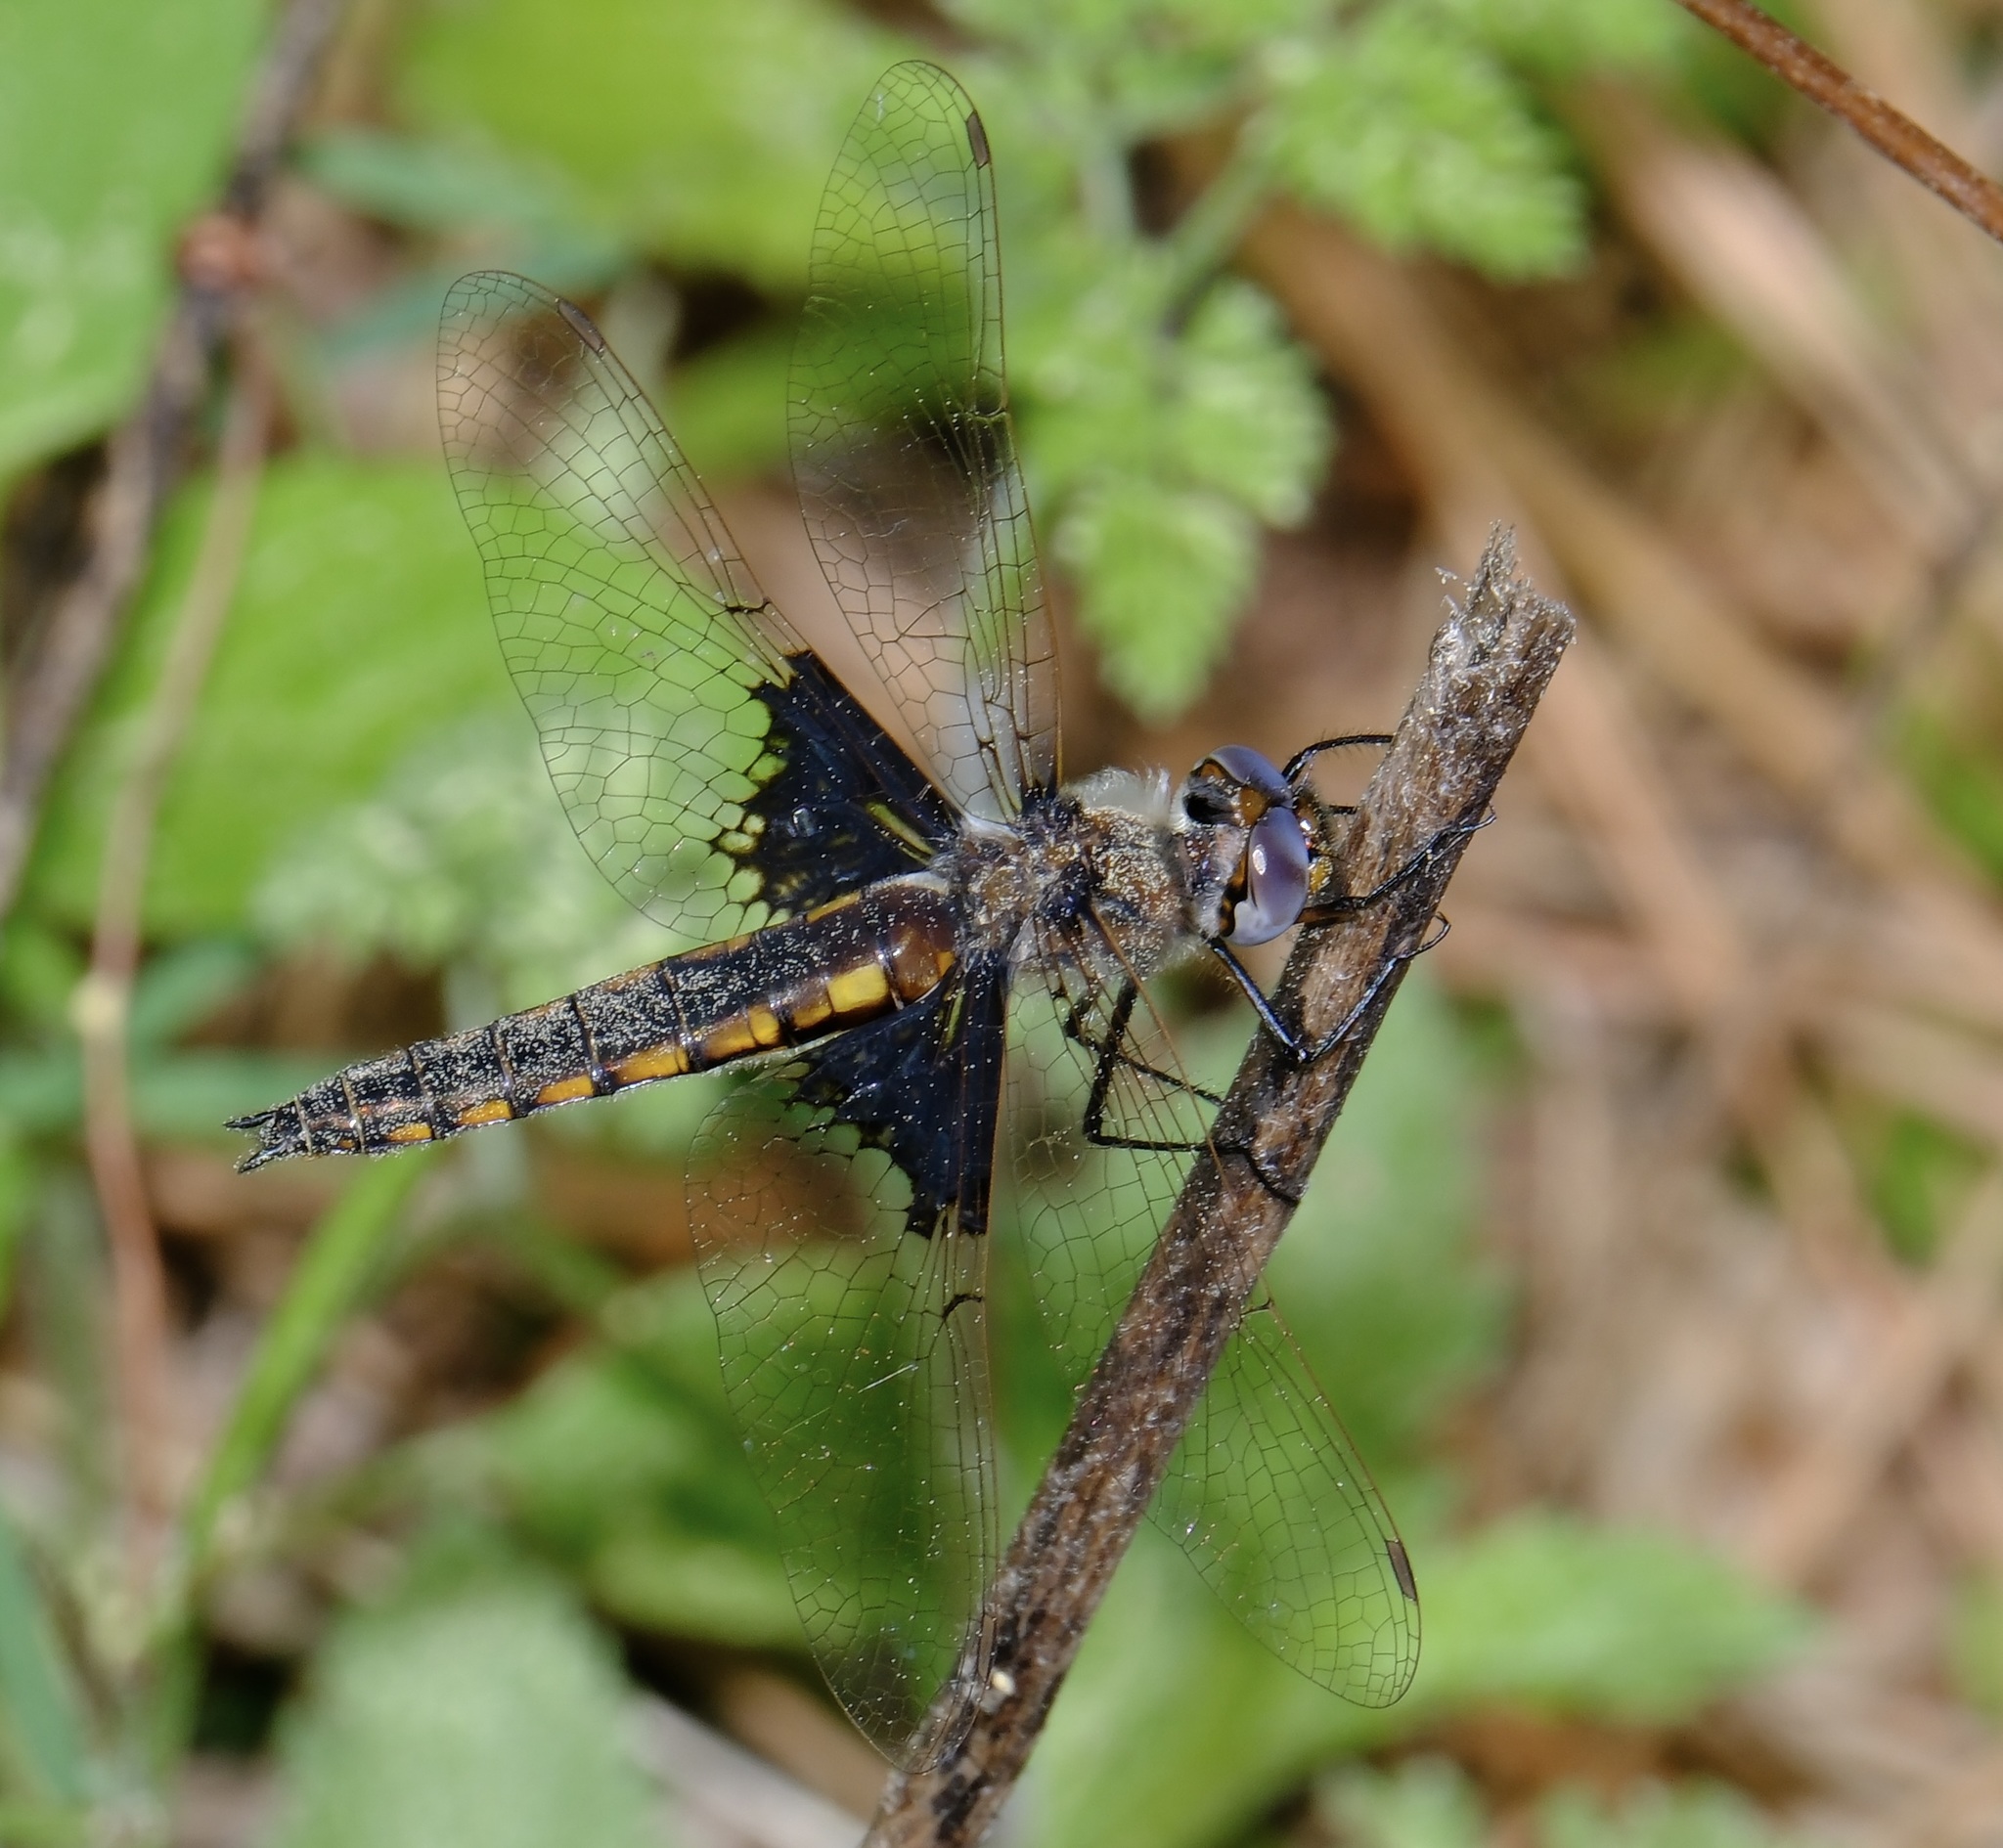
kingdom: Animalia
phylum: Arthropoda
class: Insecta
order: Odonata
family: Corduliidae
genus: Epitheca
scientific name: Epitheca semiaquea
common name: Mantled baskettail
